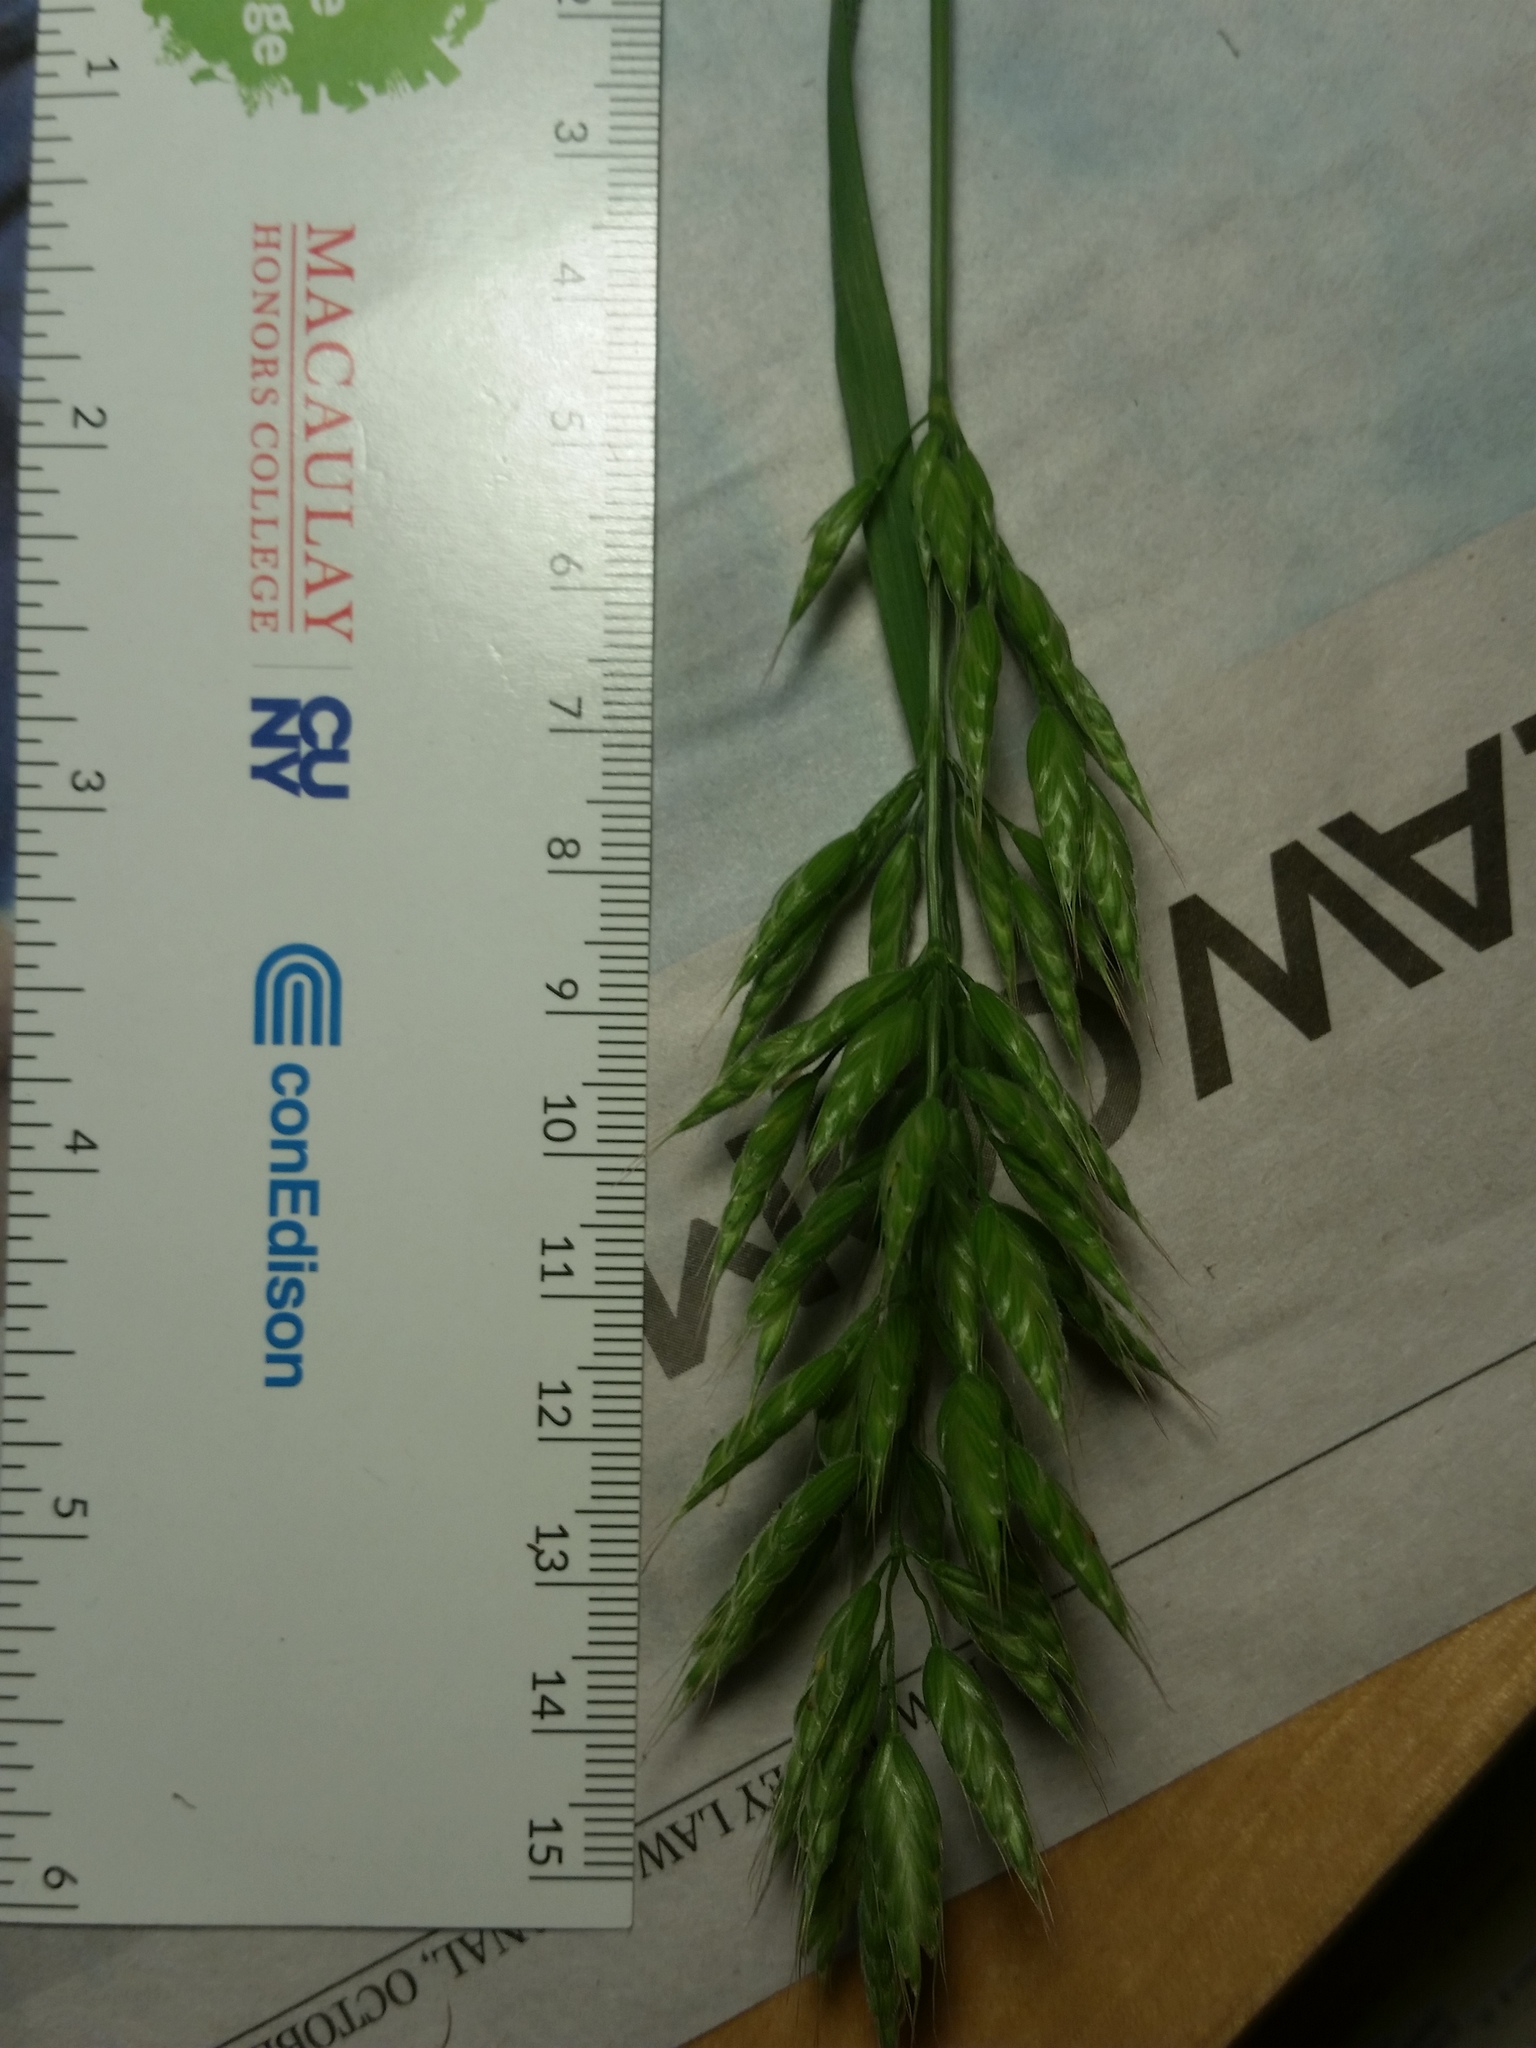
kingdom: Plantae
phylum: Tracheophyta
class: Liliopsida
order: Poales
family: Poaceae
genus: Bromus
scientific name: Bromus hordeaceus
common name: Soft brome
